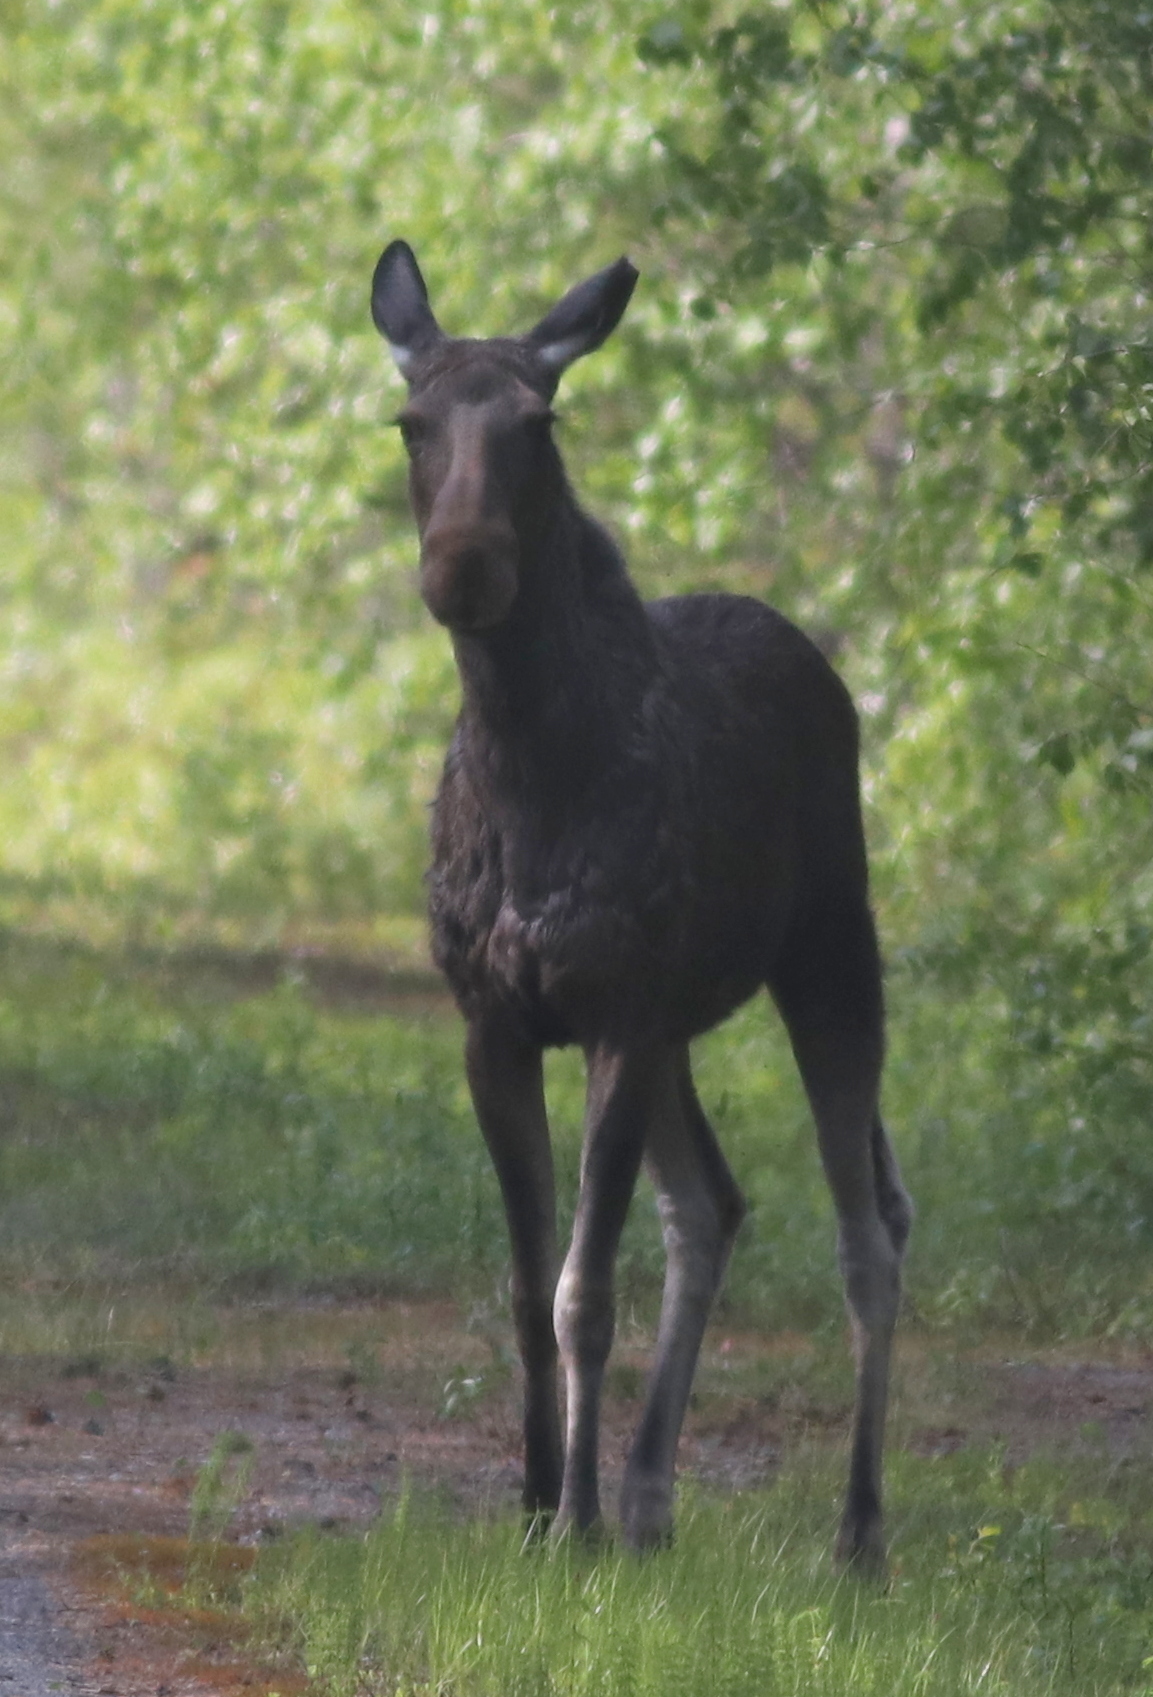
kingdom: Animalia
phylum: Chordata
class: Mammalia
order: Artiodactyla
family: Cervidae
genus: Alces
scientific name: Alces alces
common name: Moose
